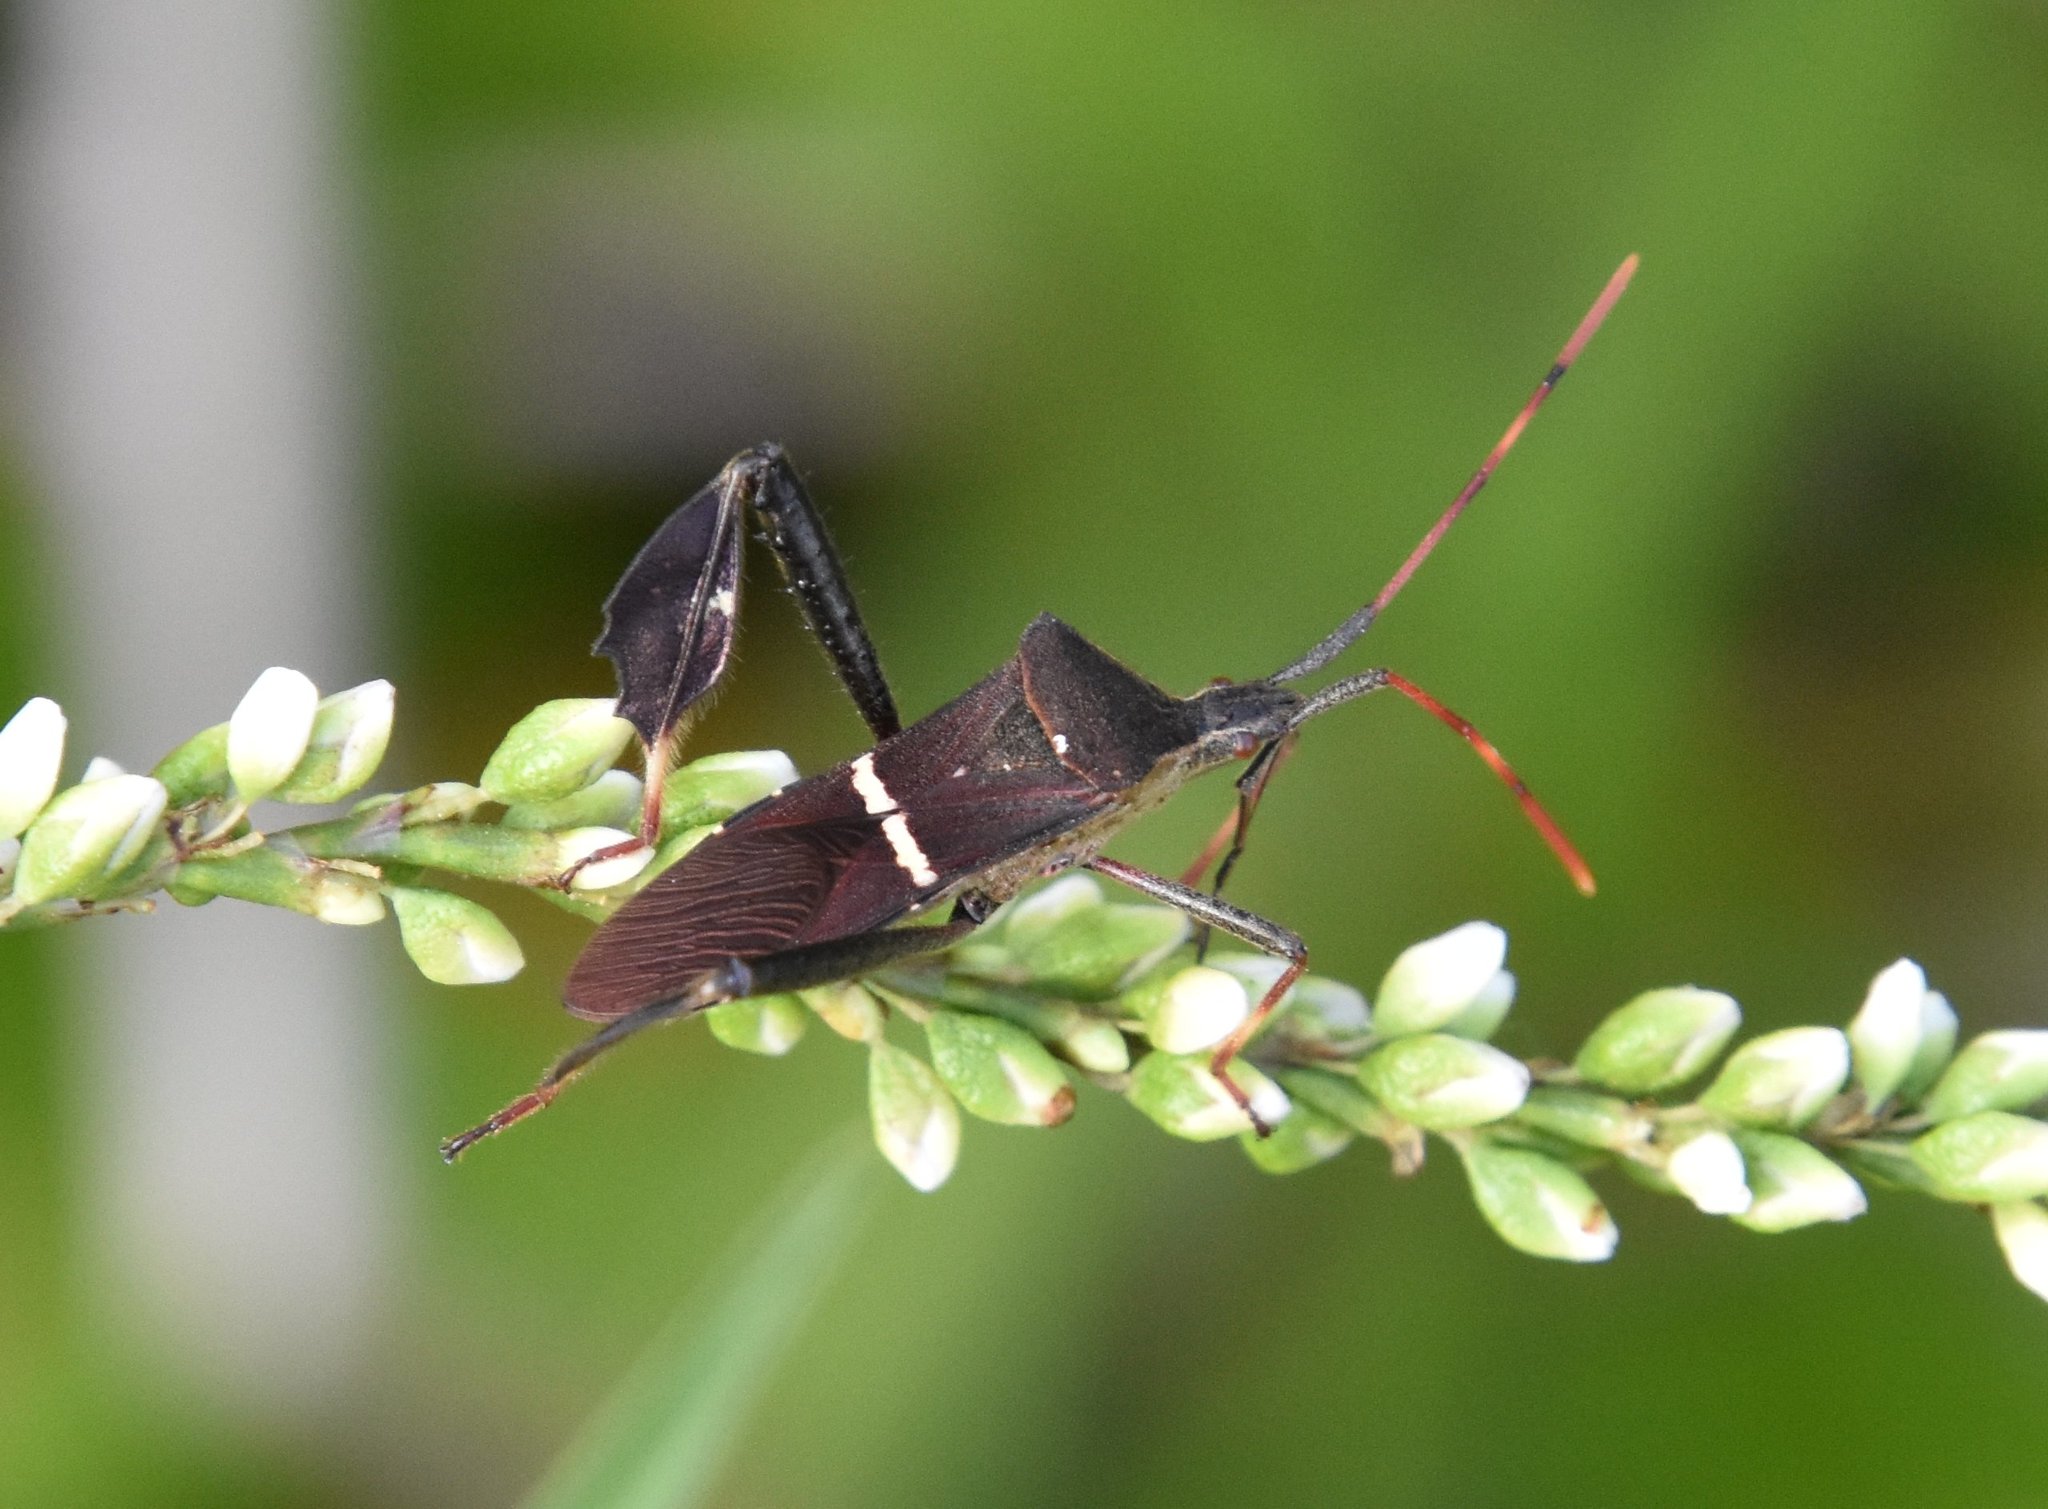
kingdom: Animalia
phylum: Arthropoda
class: Insecta
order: Hemiptera
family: Coreidae
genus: Leptoglossus
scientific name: Leptoglossus phyllopus
